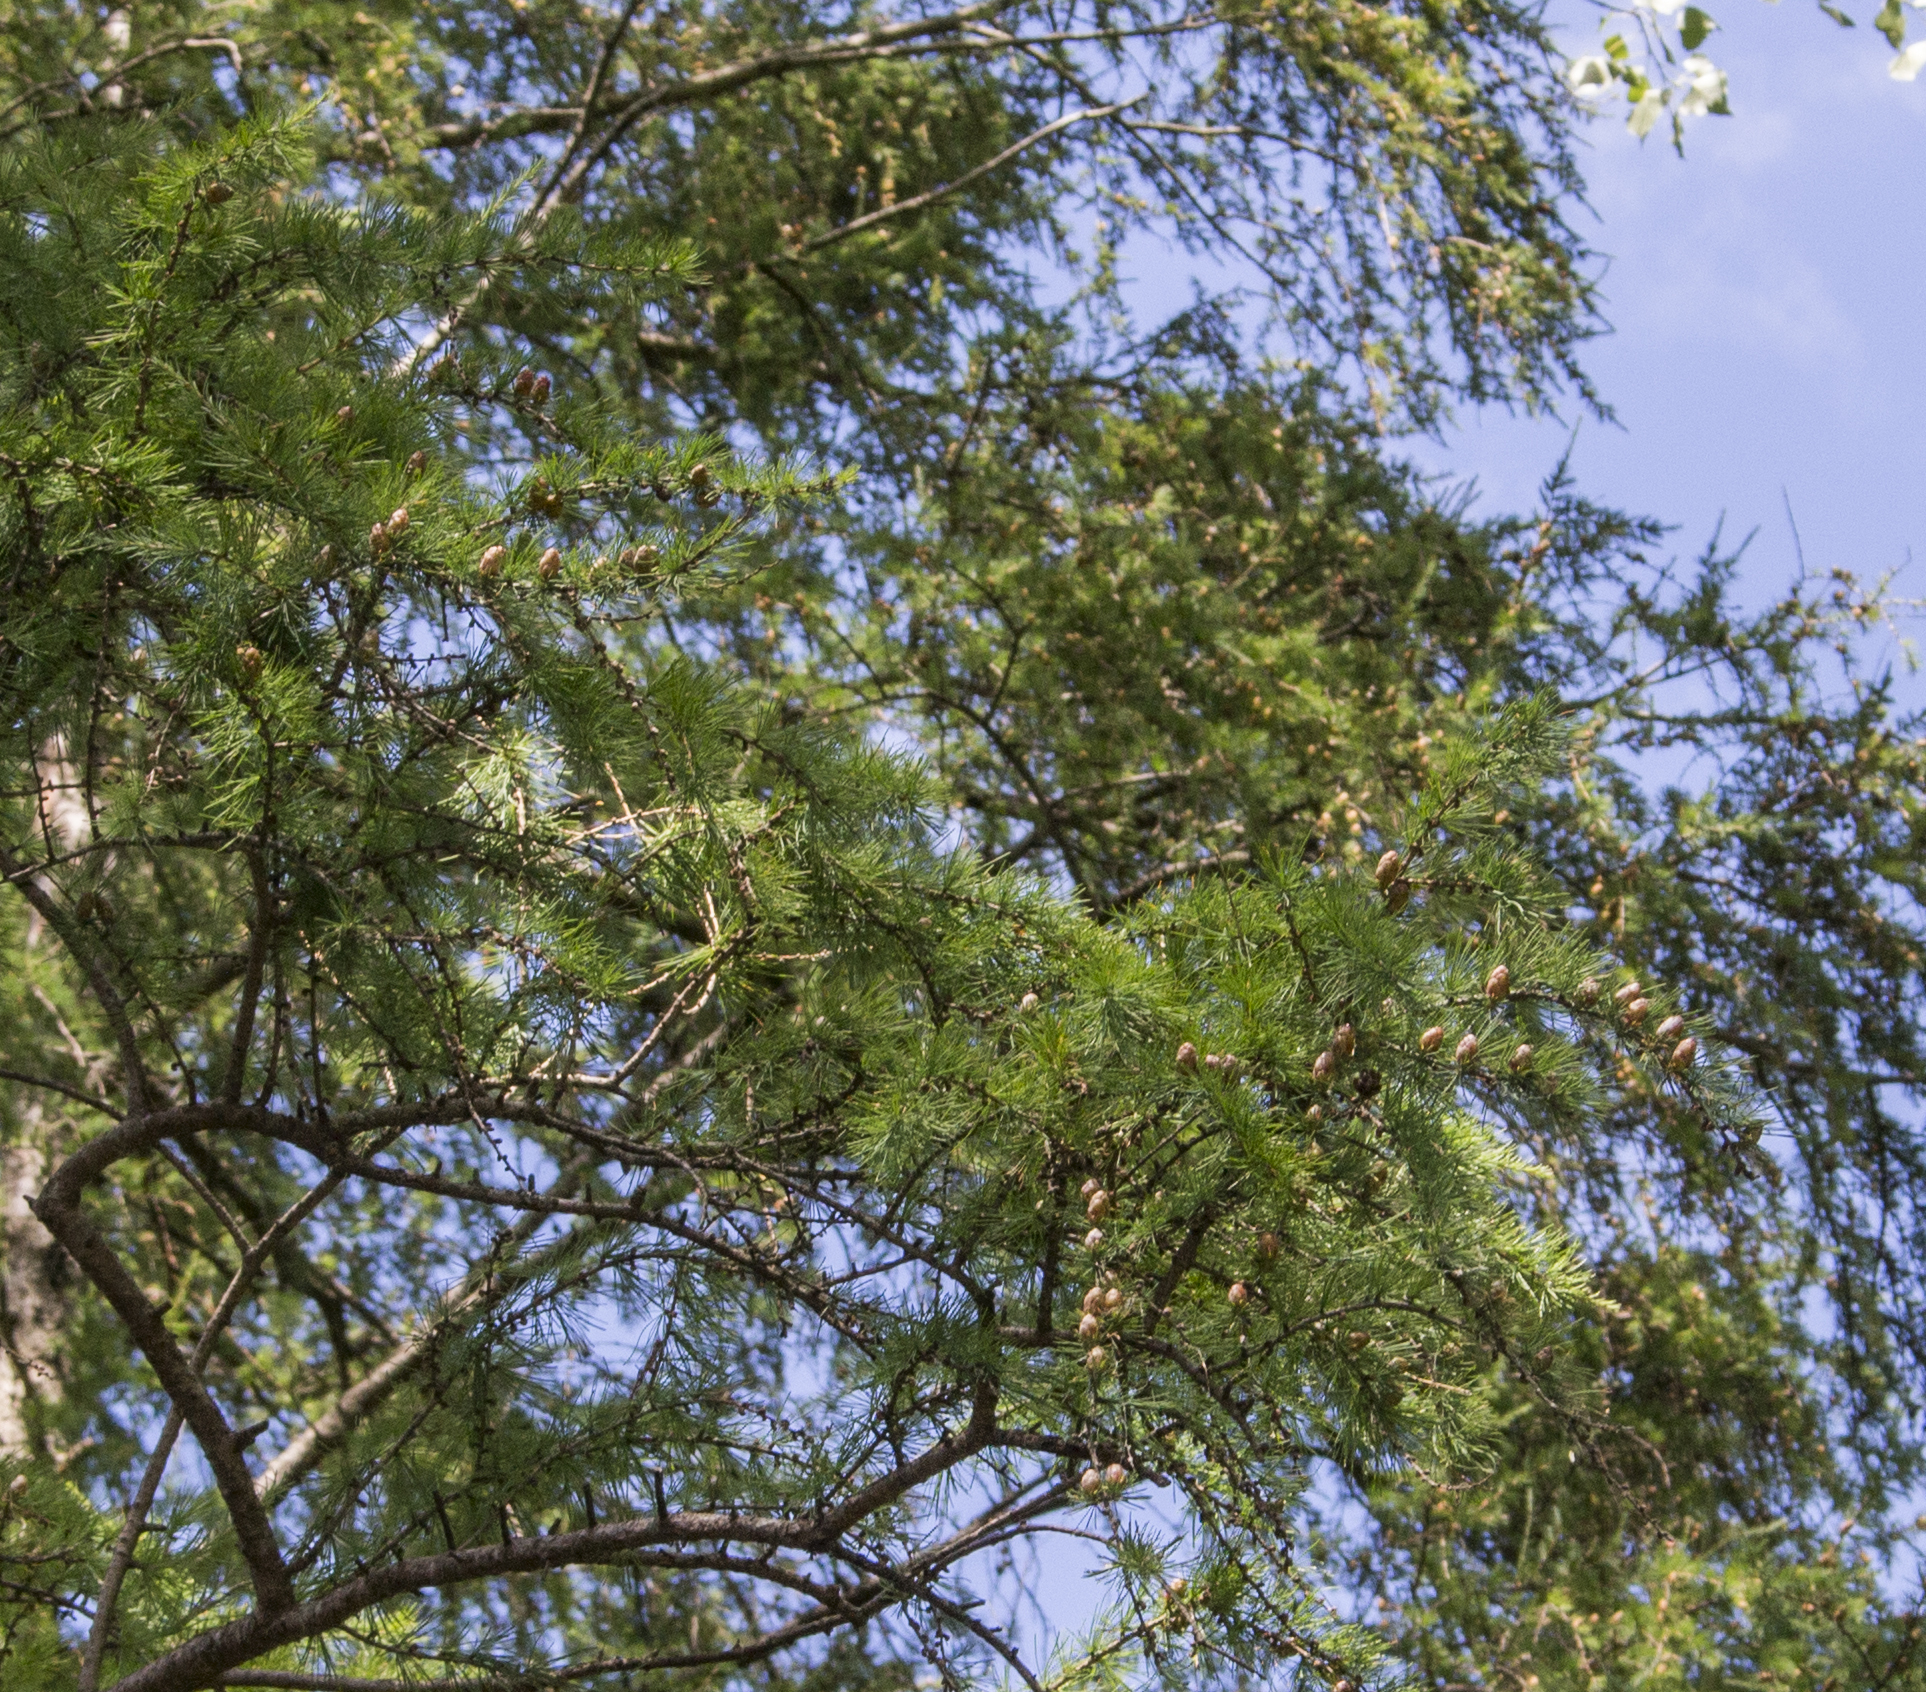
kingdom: Plantae
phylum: Tracheophyta
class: Pinopsida
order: Pinales
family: Pinaceae
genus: Larix
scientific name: Larix laricina
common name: American larch
